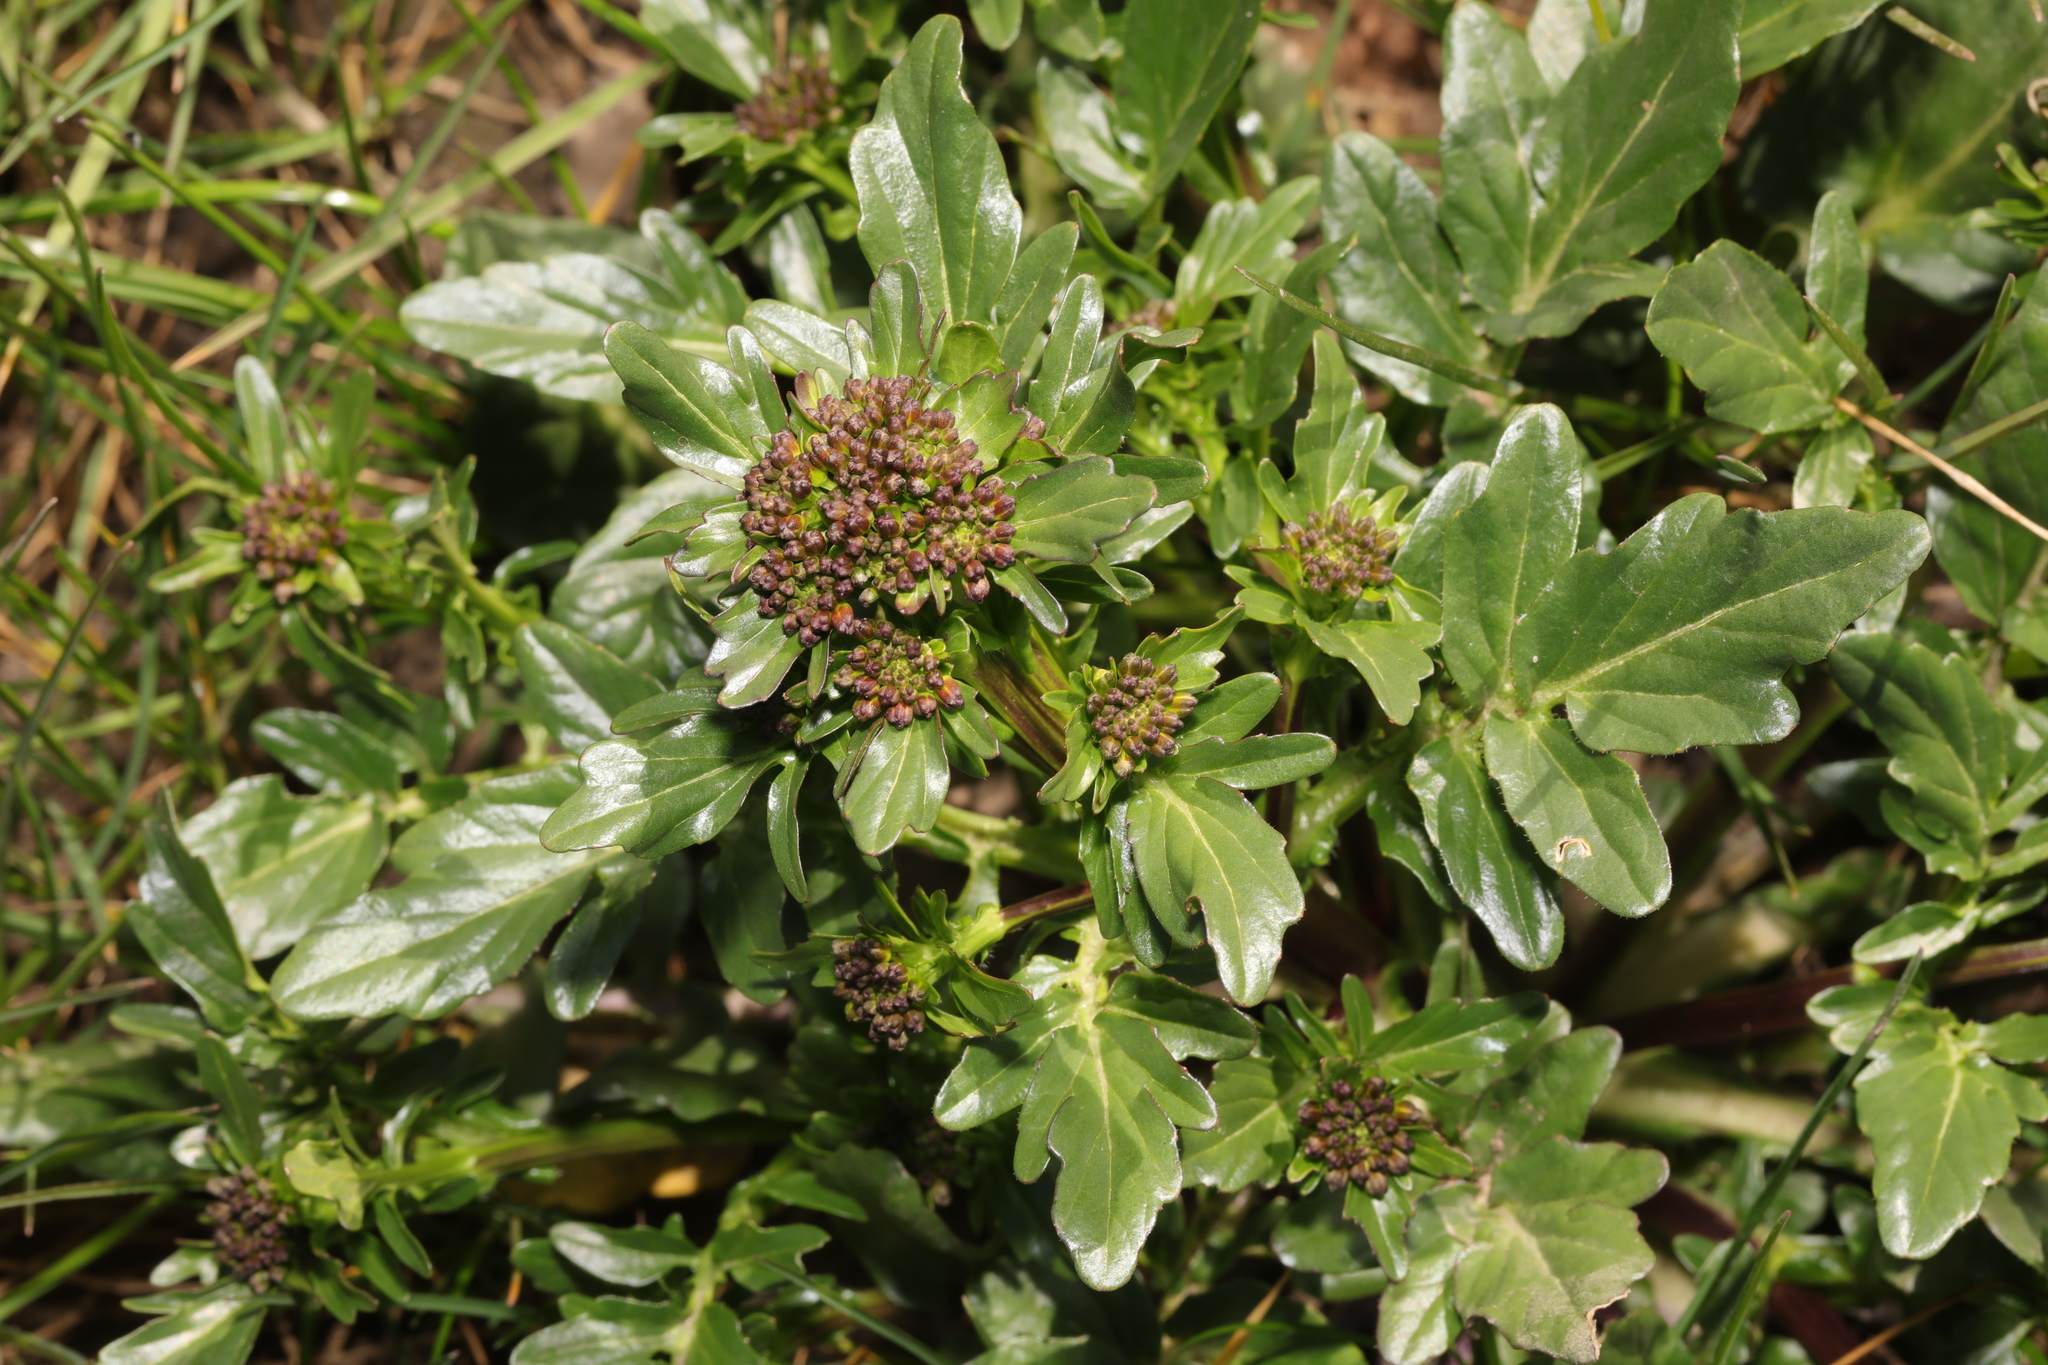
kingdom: Plantae
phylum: Tracheophyta
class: Magnoliopsida
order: Brassicales
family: Brassicaceae
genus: Barbarea
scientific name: Barbarea vulgaris
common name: Cressy-greens
